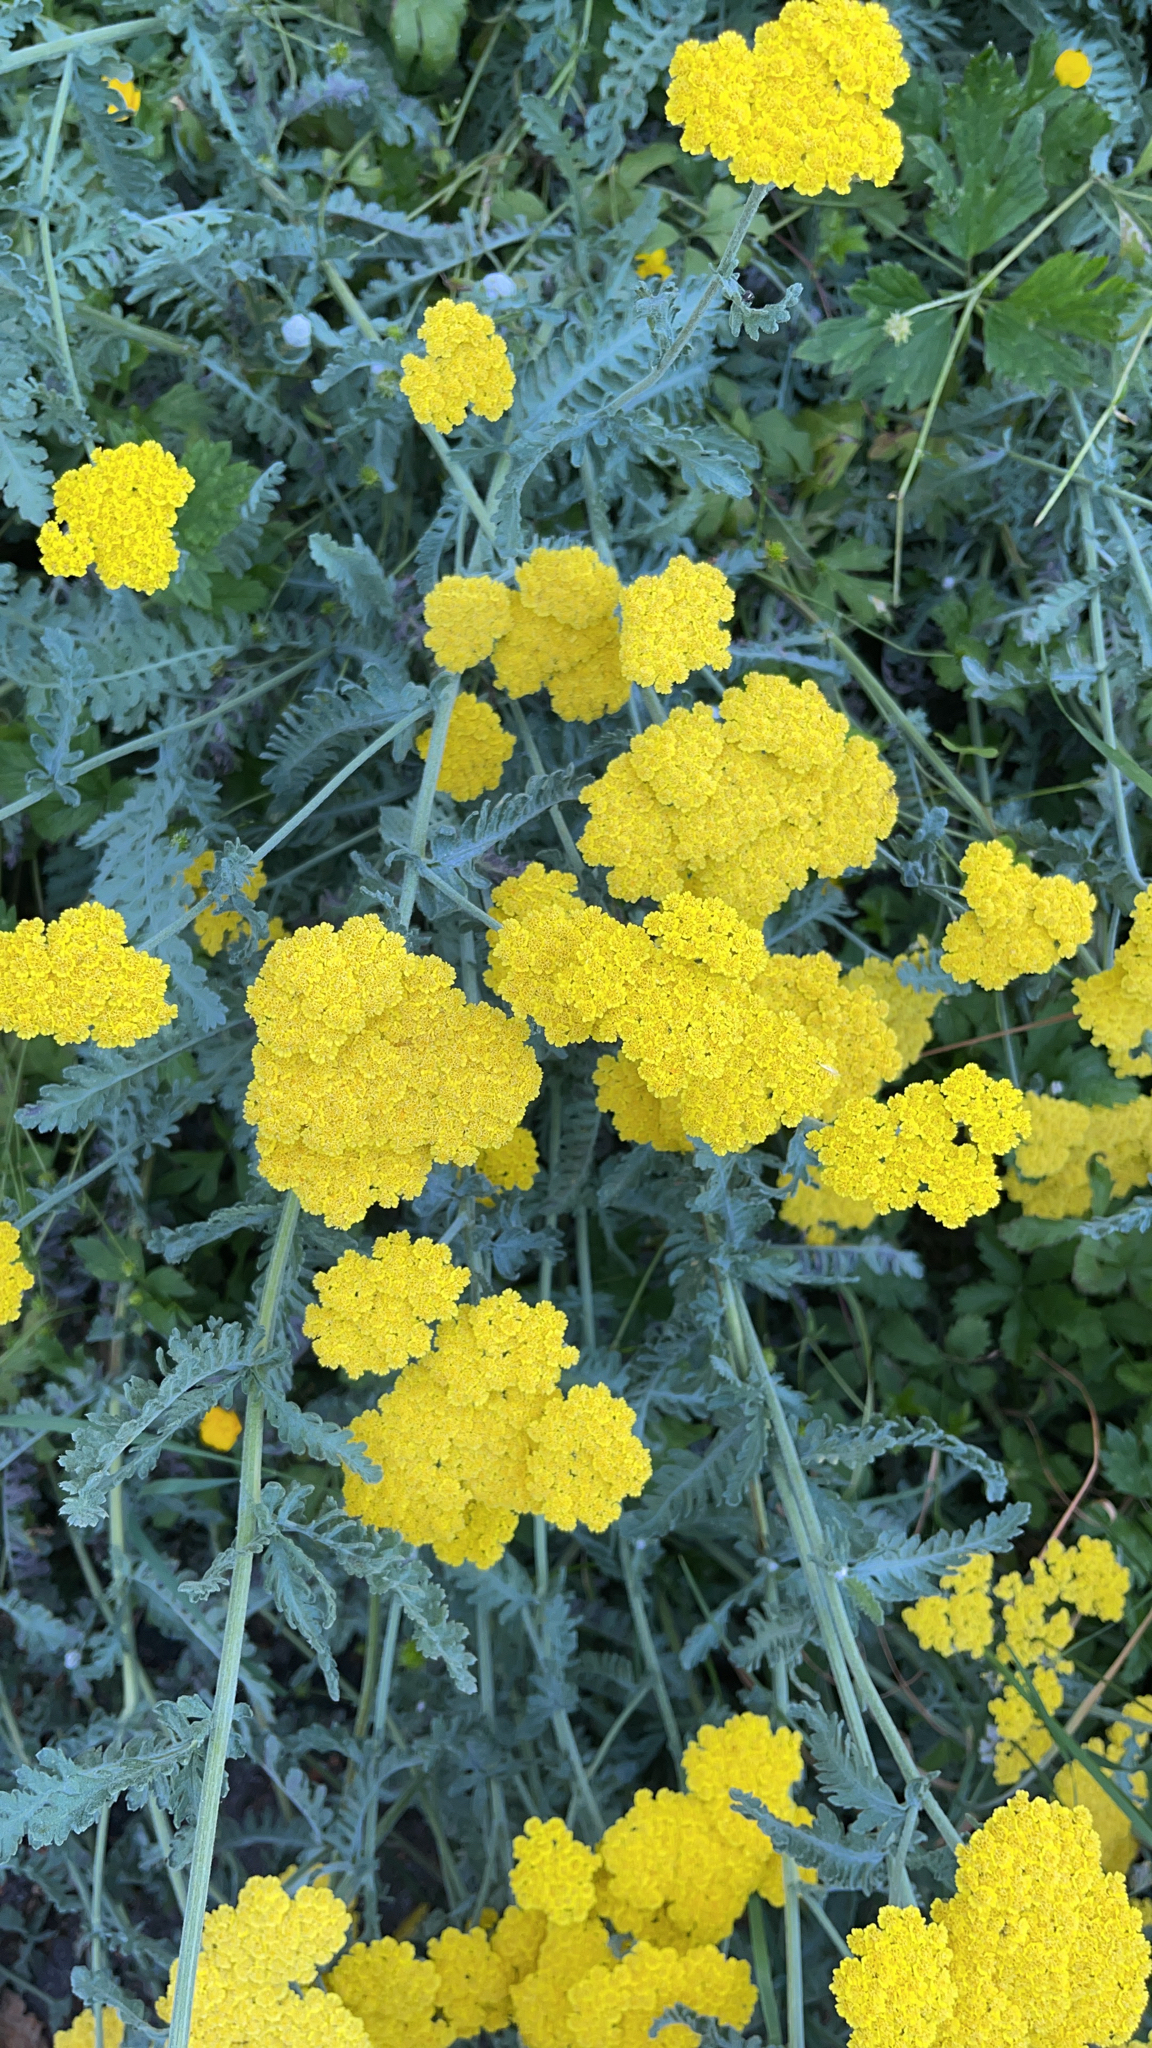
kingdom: Plantae
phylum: Tracheophyta
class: Magnoliopsida
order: Asterales
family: Asteraceae
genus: Achillea
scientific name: Achillea filipendulina
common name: Fernleaf yarrow
